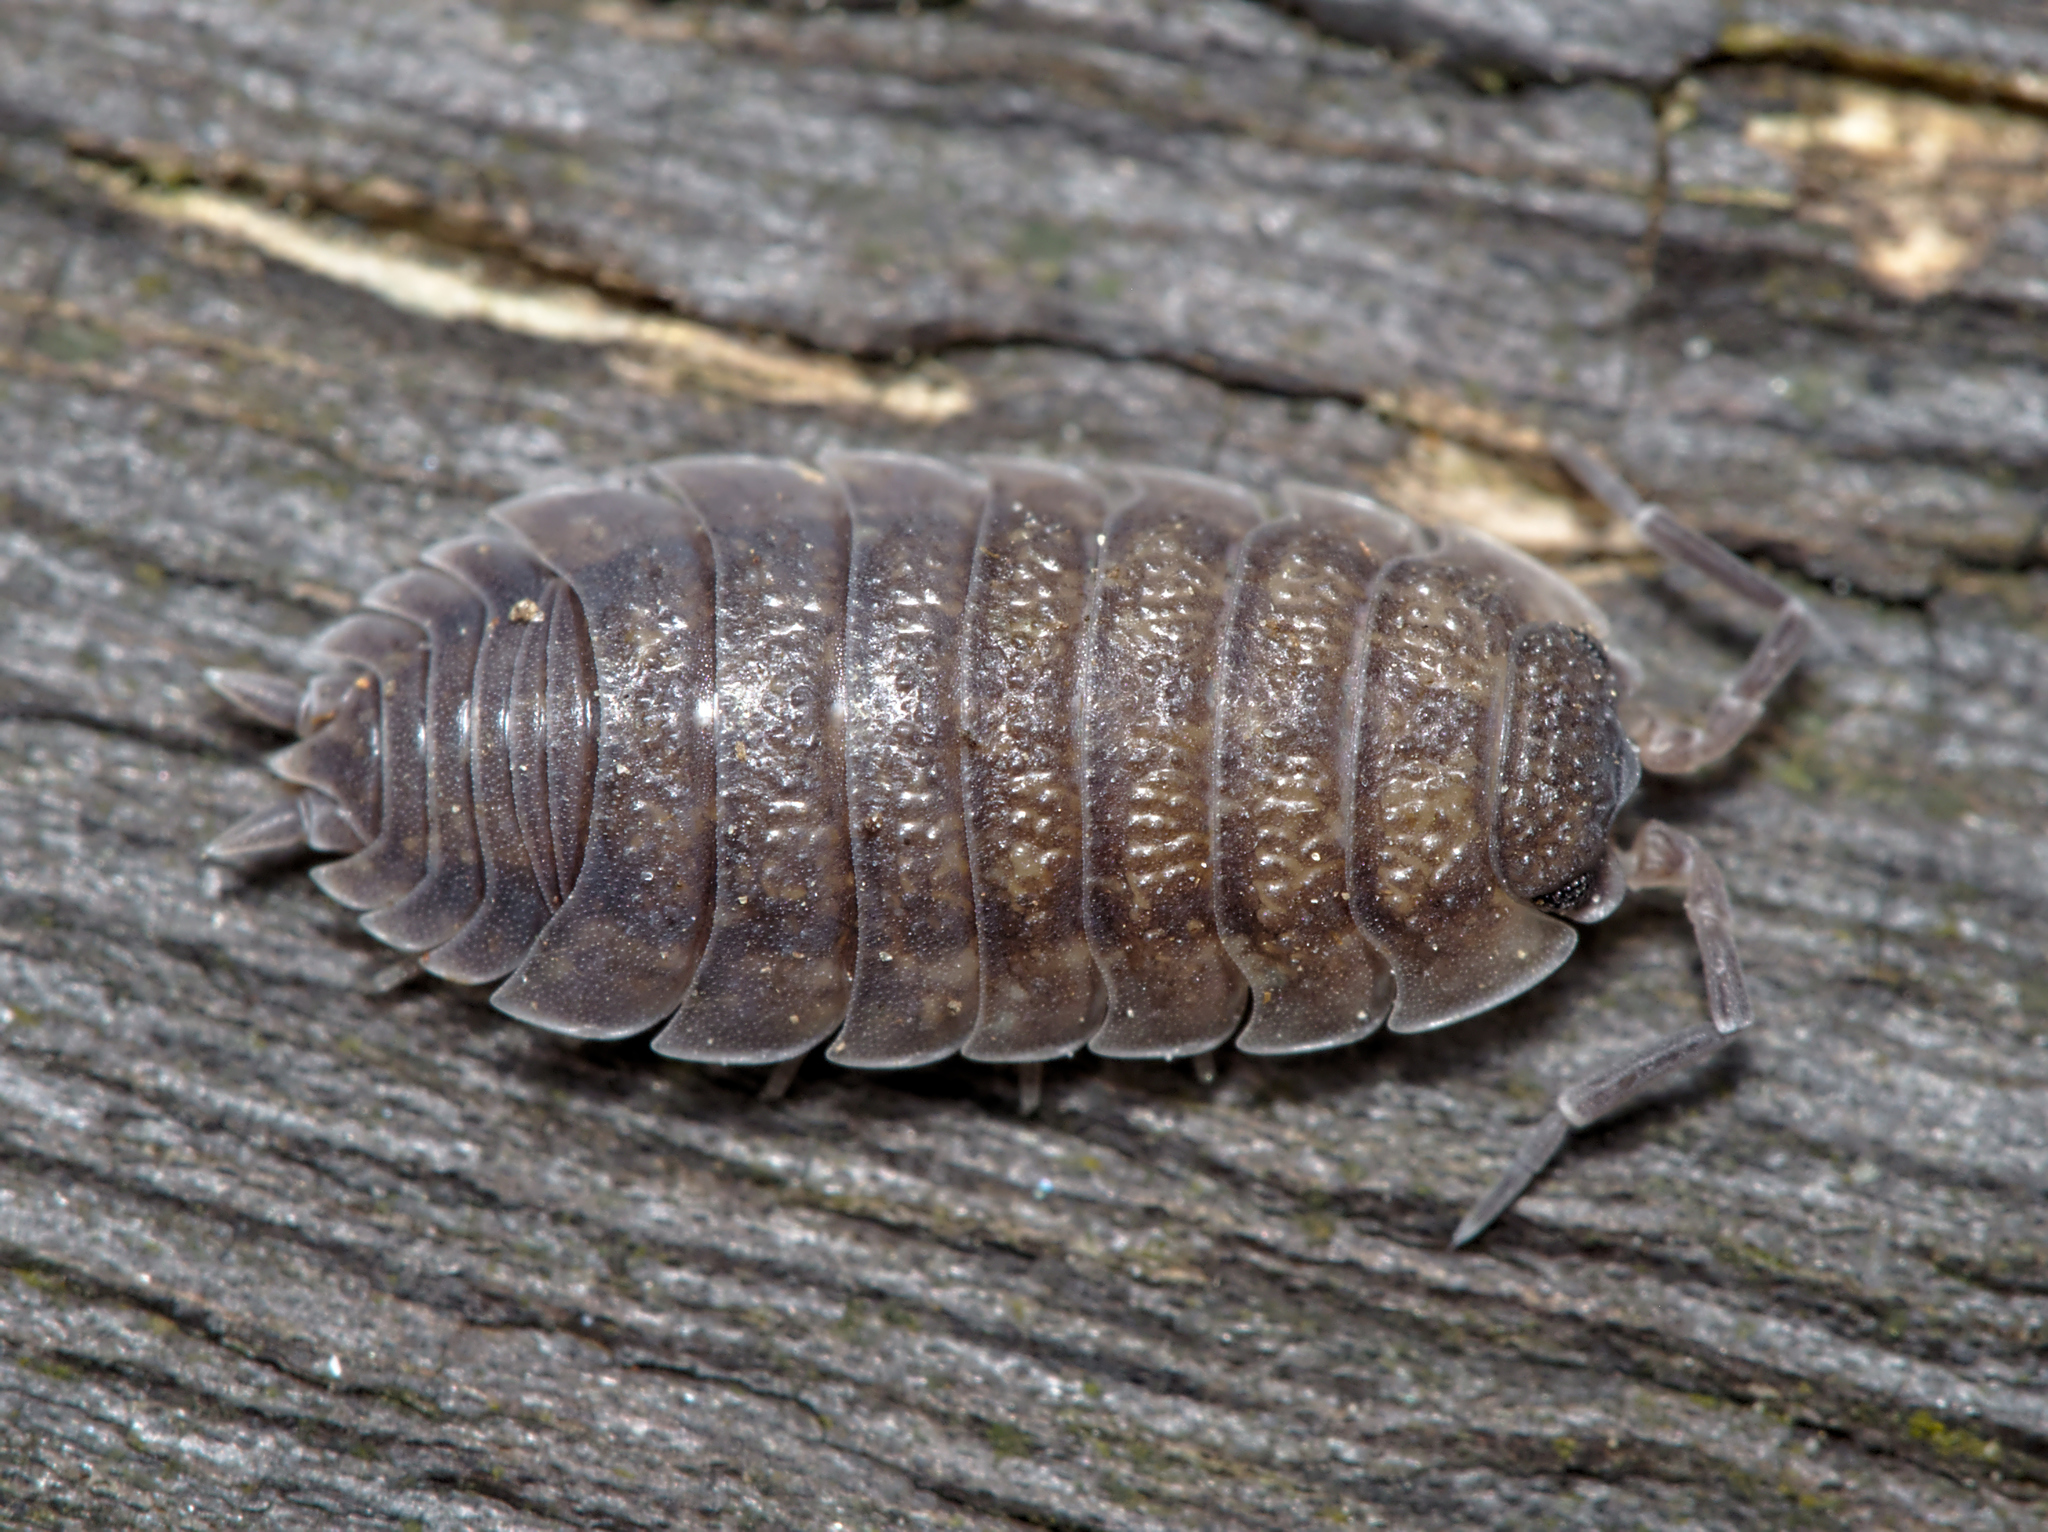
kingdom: Animalia
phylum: Arthropoda
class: Malacostraca
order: Isopoda
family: Porcellionidae
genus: Porcellio
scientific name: Porcellio scaber
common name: Common rough woodlouse
